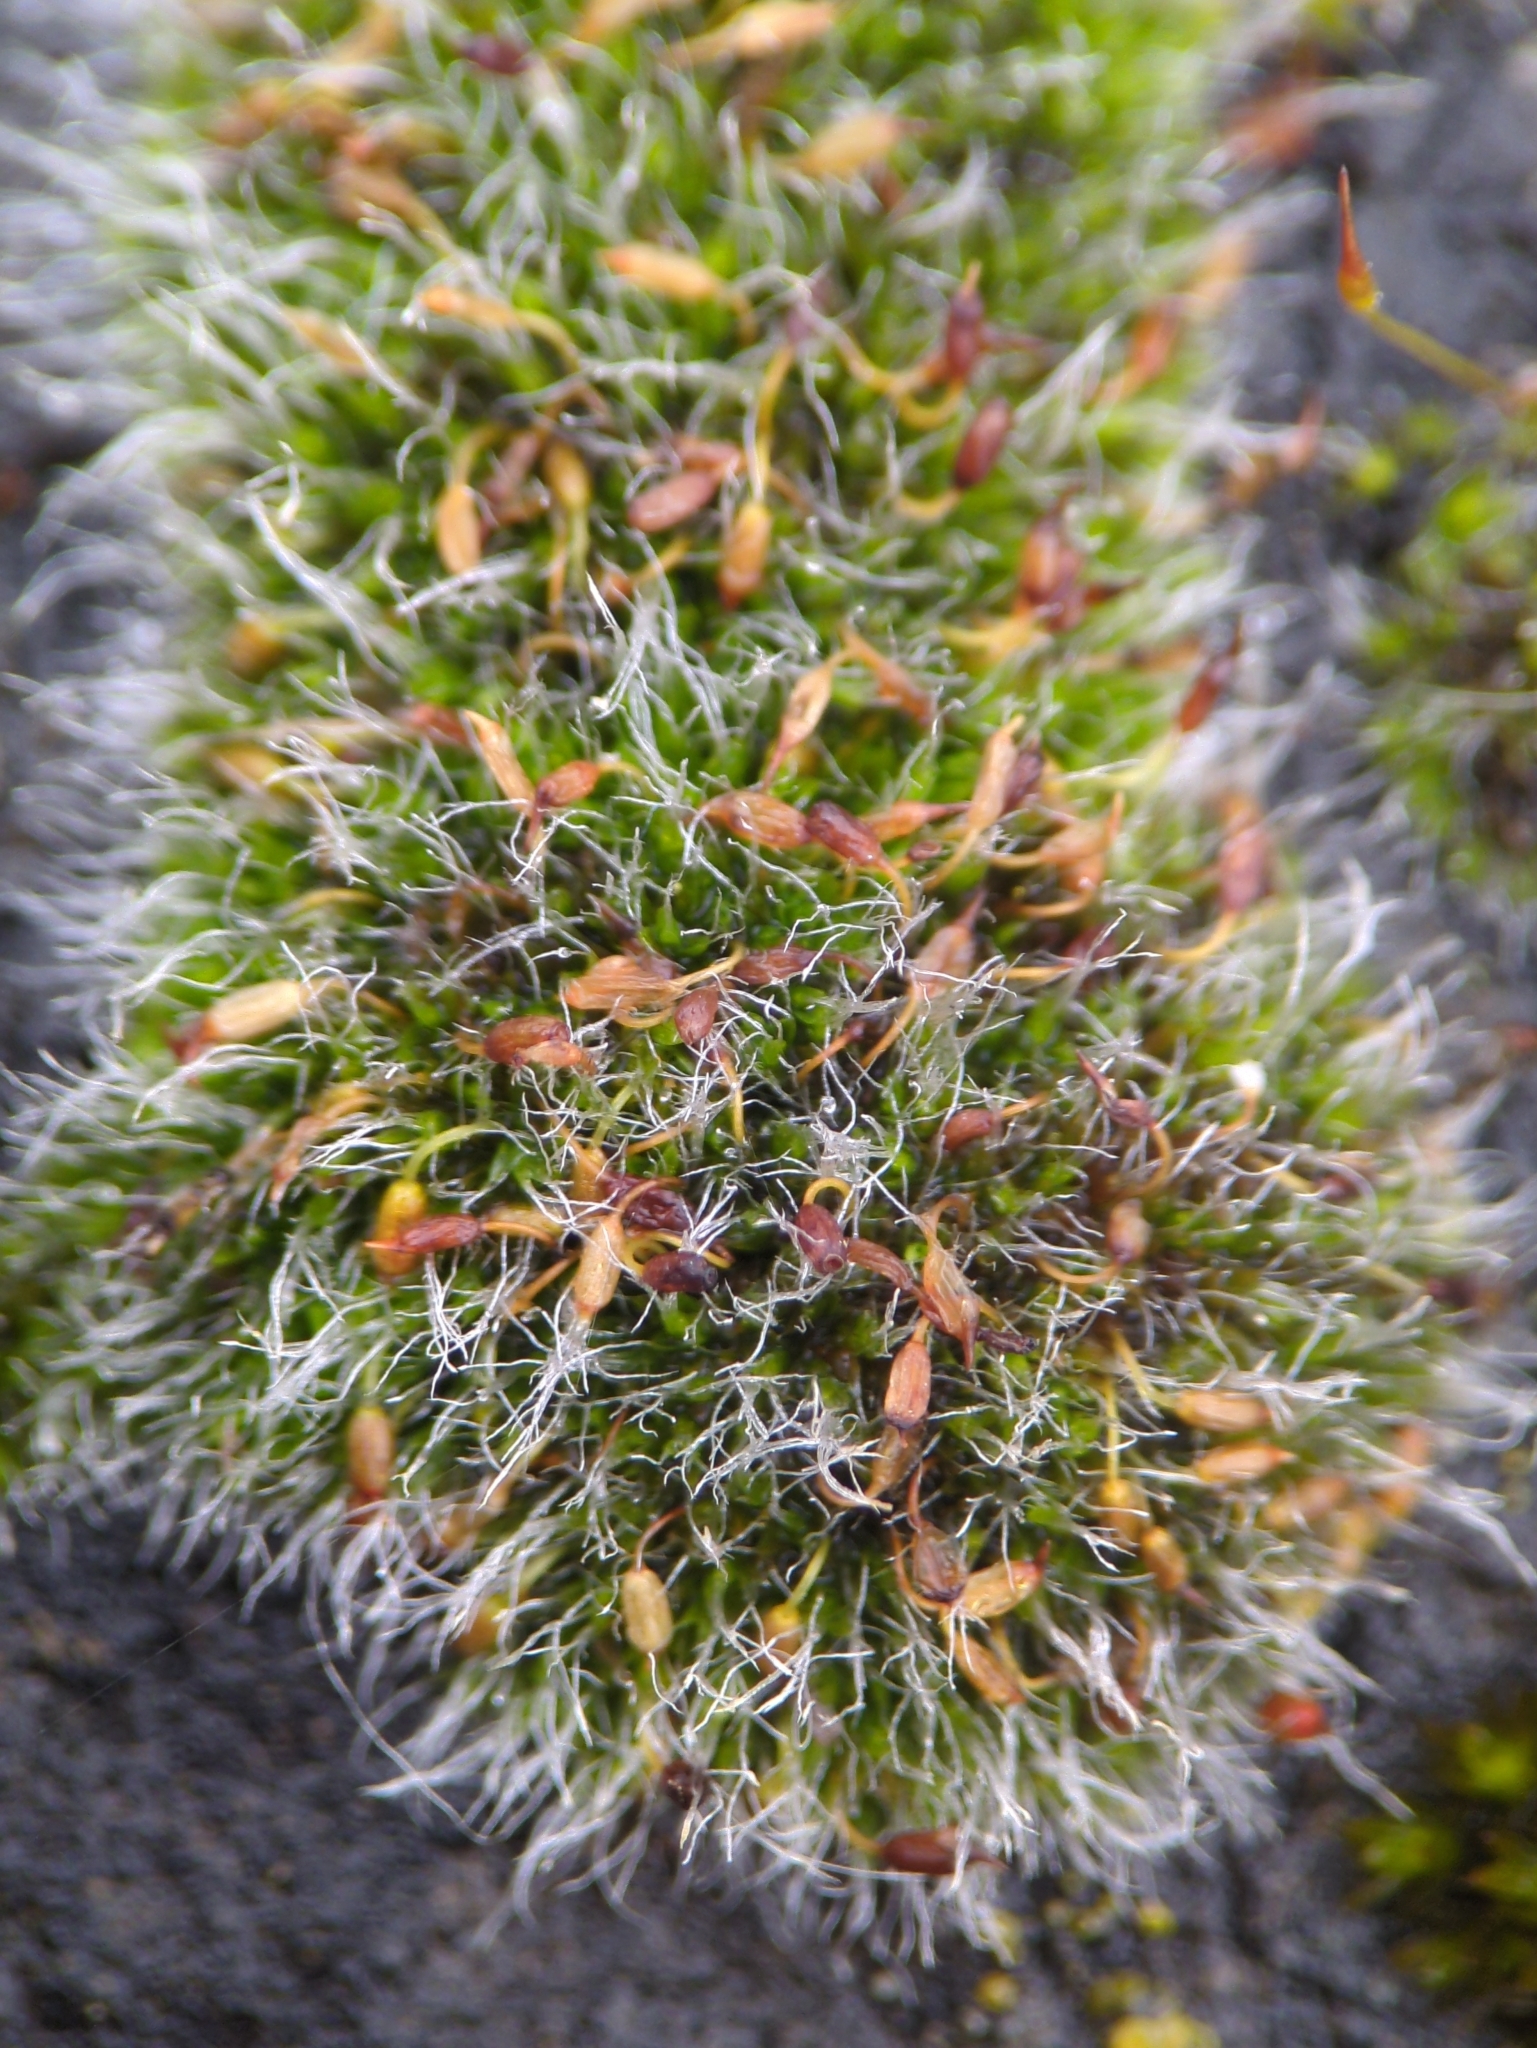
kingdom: Plantae
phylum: Bryophyta
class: Bryopsida
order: Grimmiales
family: Grimmiaceae
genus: Grimmia
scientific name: Grimmia pulvinata
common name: Grey-cushioned grimmia
